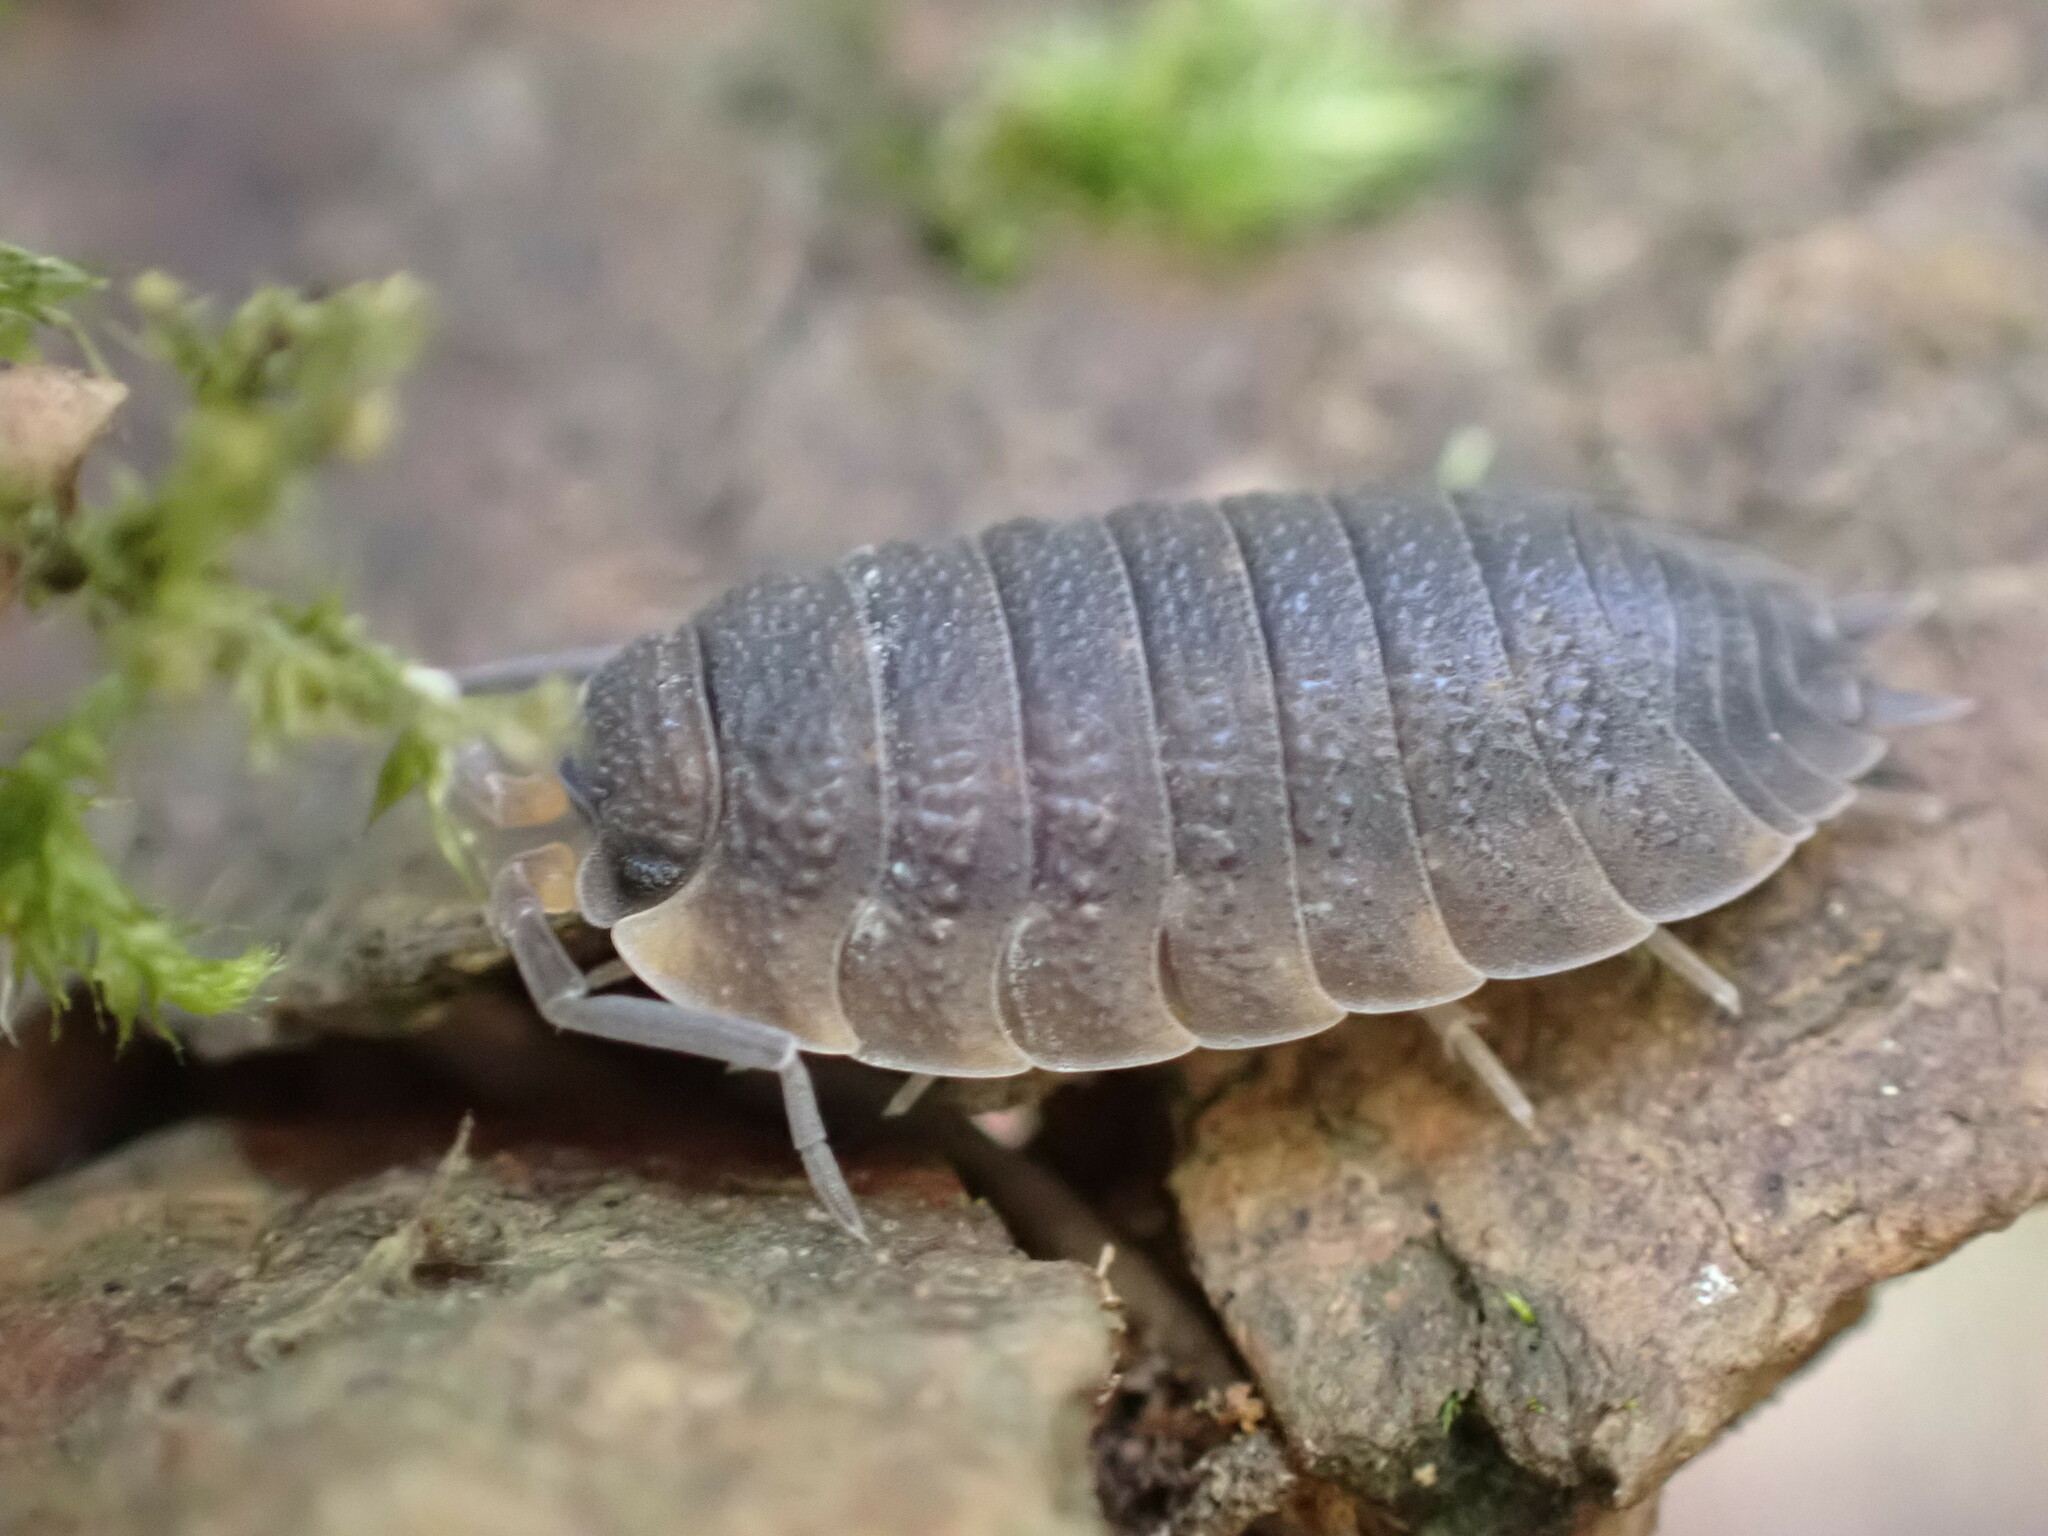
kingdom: Animalia
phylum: Arthropoda
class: Malacostraca
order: Isopoda
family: Porcellionidae
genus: Porcellio
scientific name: Porcellio scaber
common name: Common rough woodlouse
